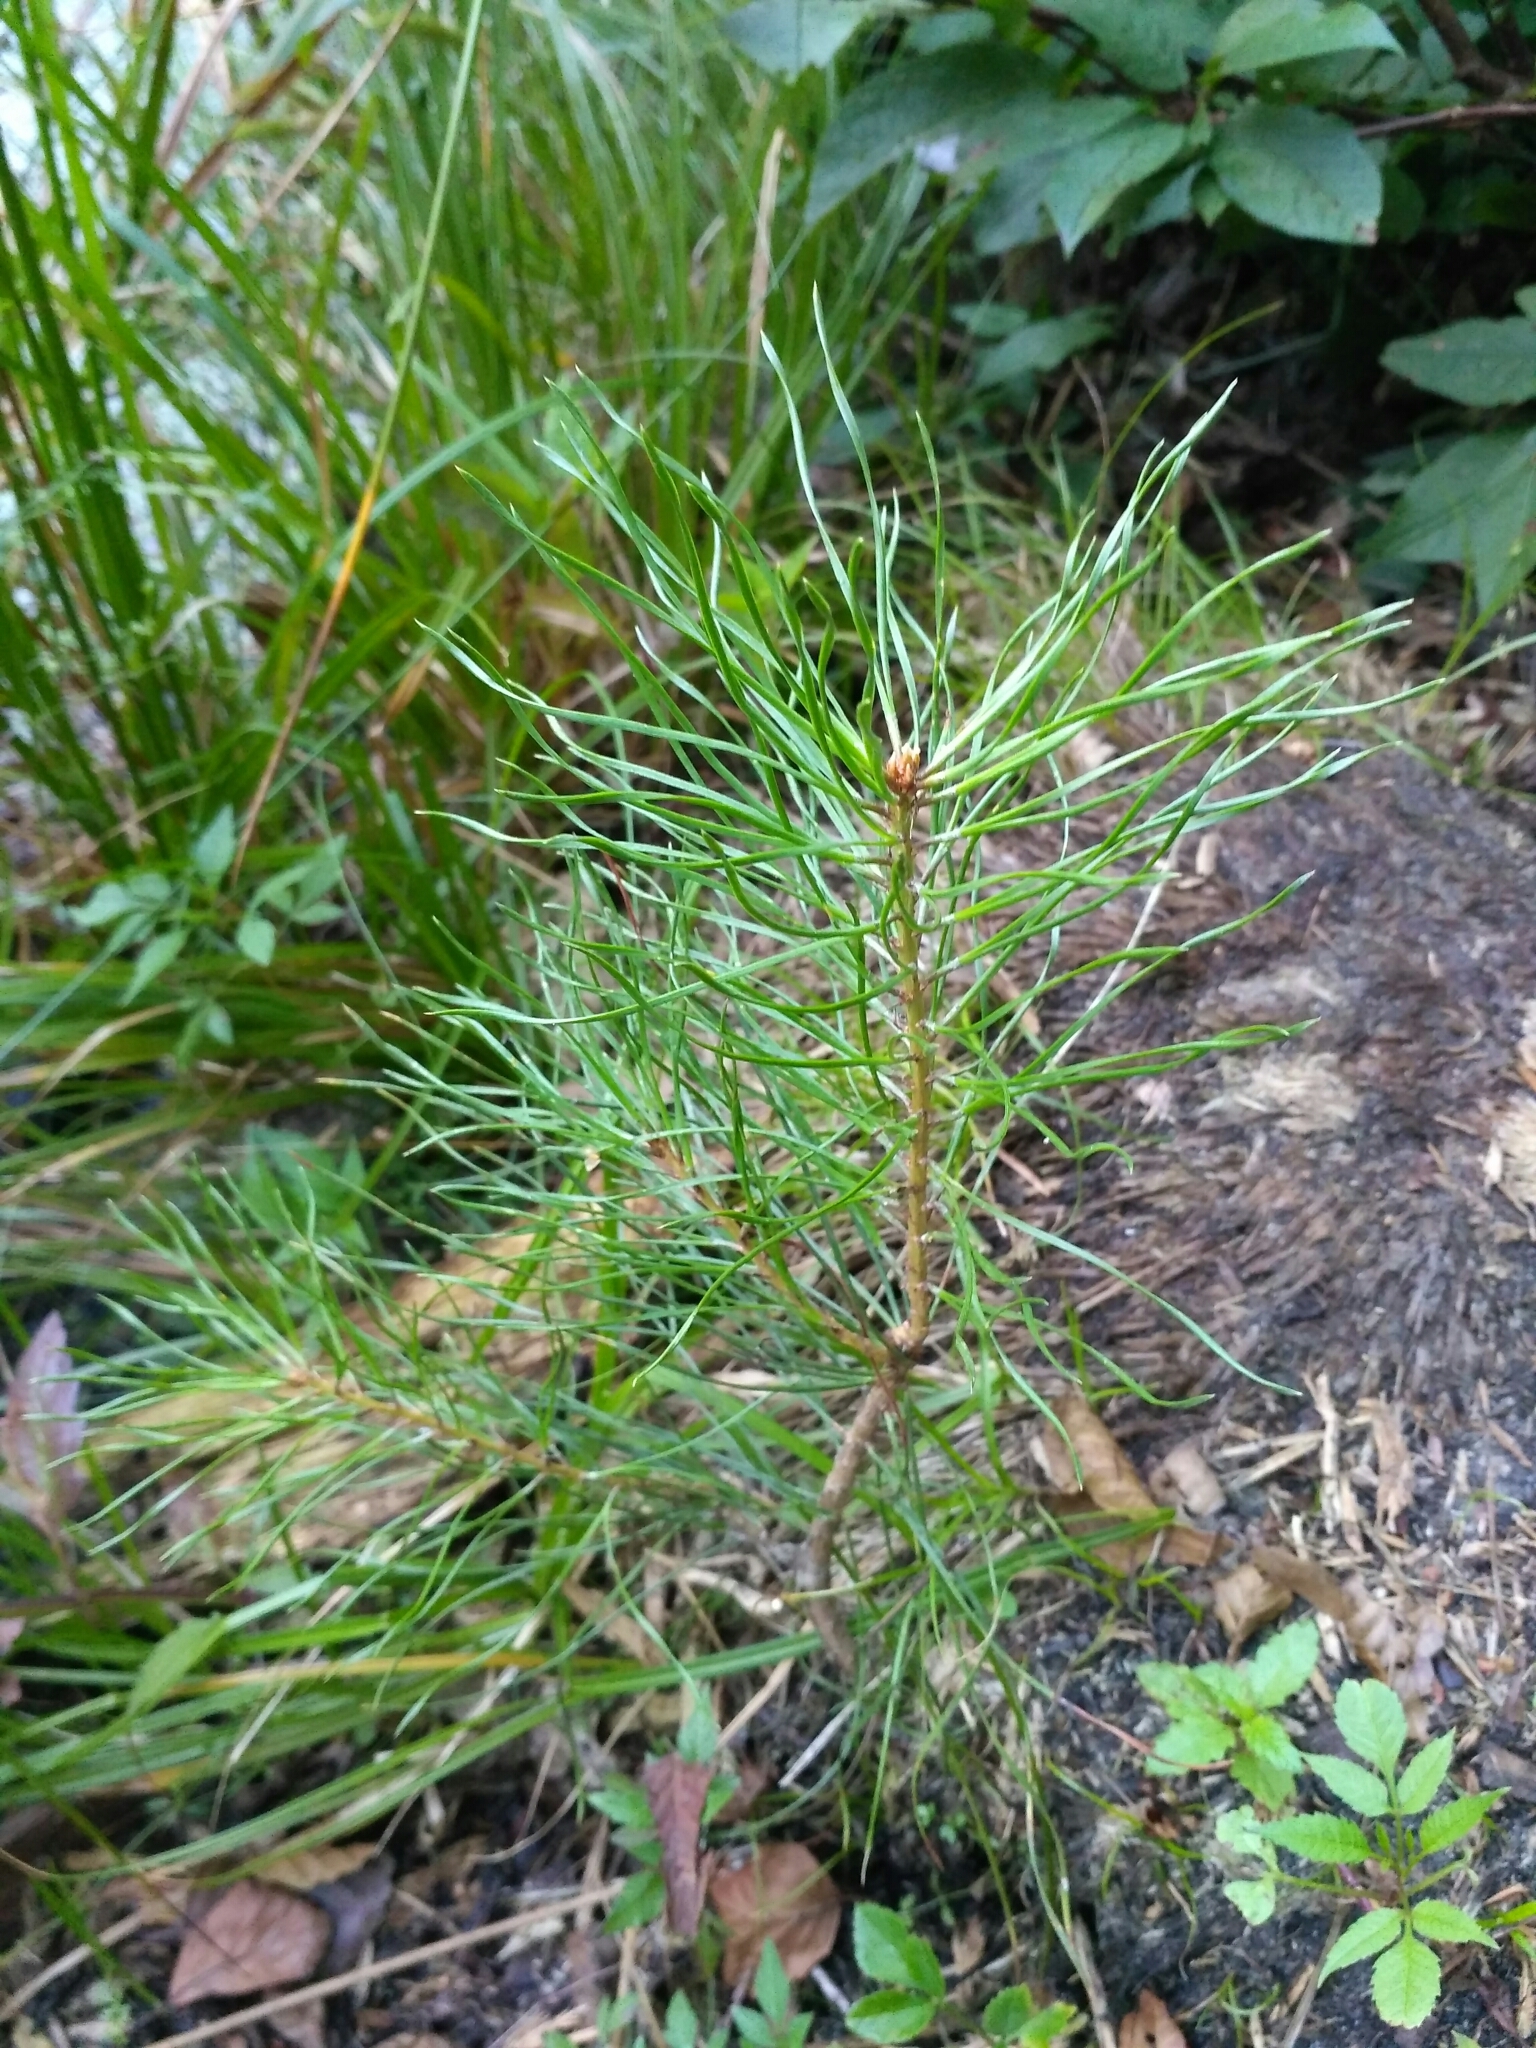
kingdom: Plantae
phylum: Tracheophyta
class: Pinopsida
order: Pinales
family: Pinaceae
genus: Pinus
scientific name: Pinus sylvestris
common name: Scots pine
